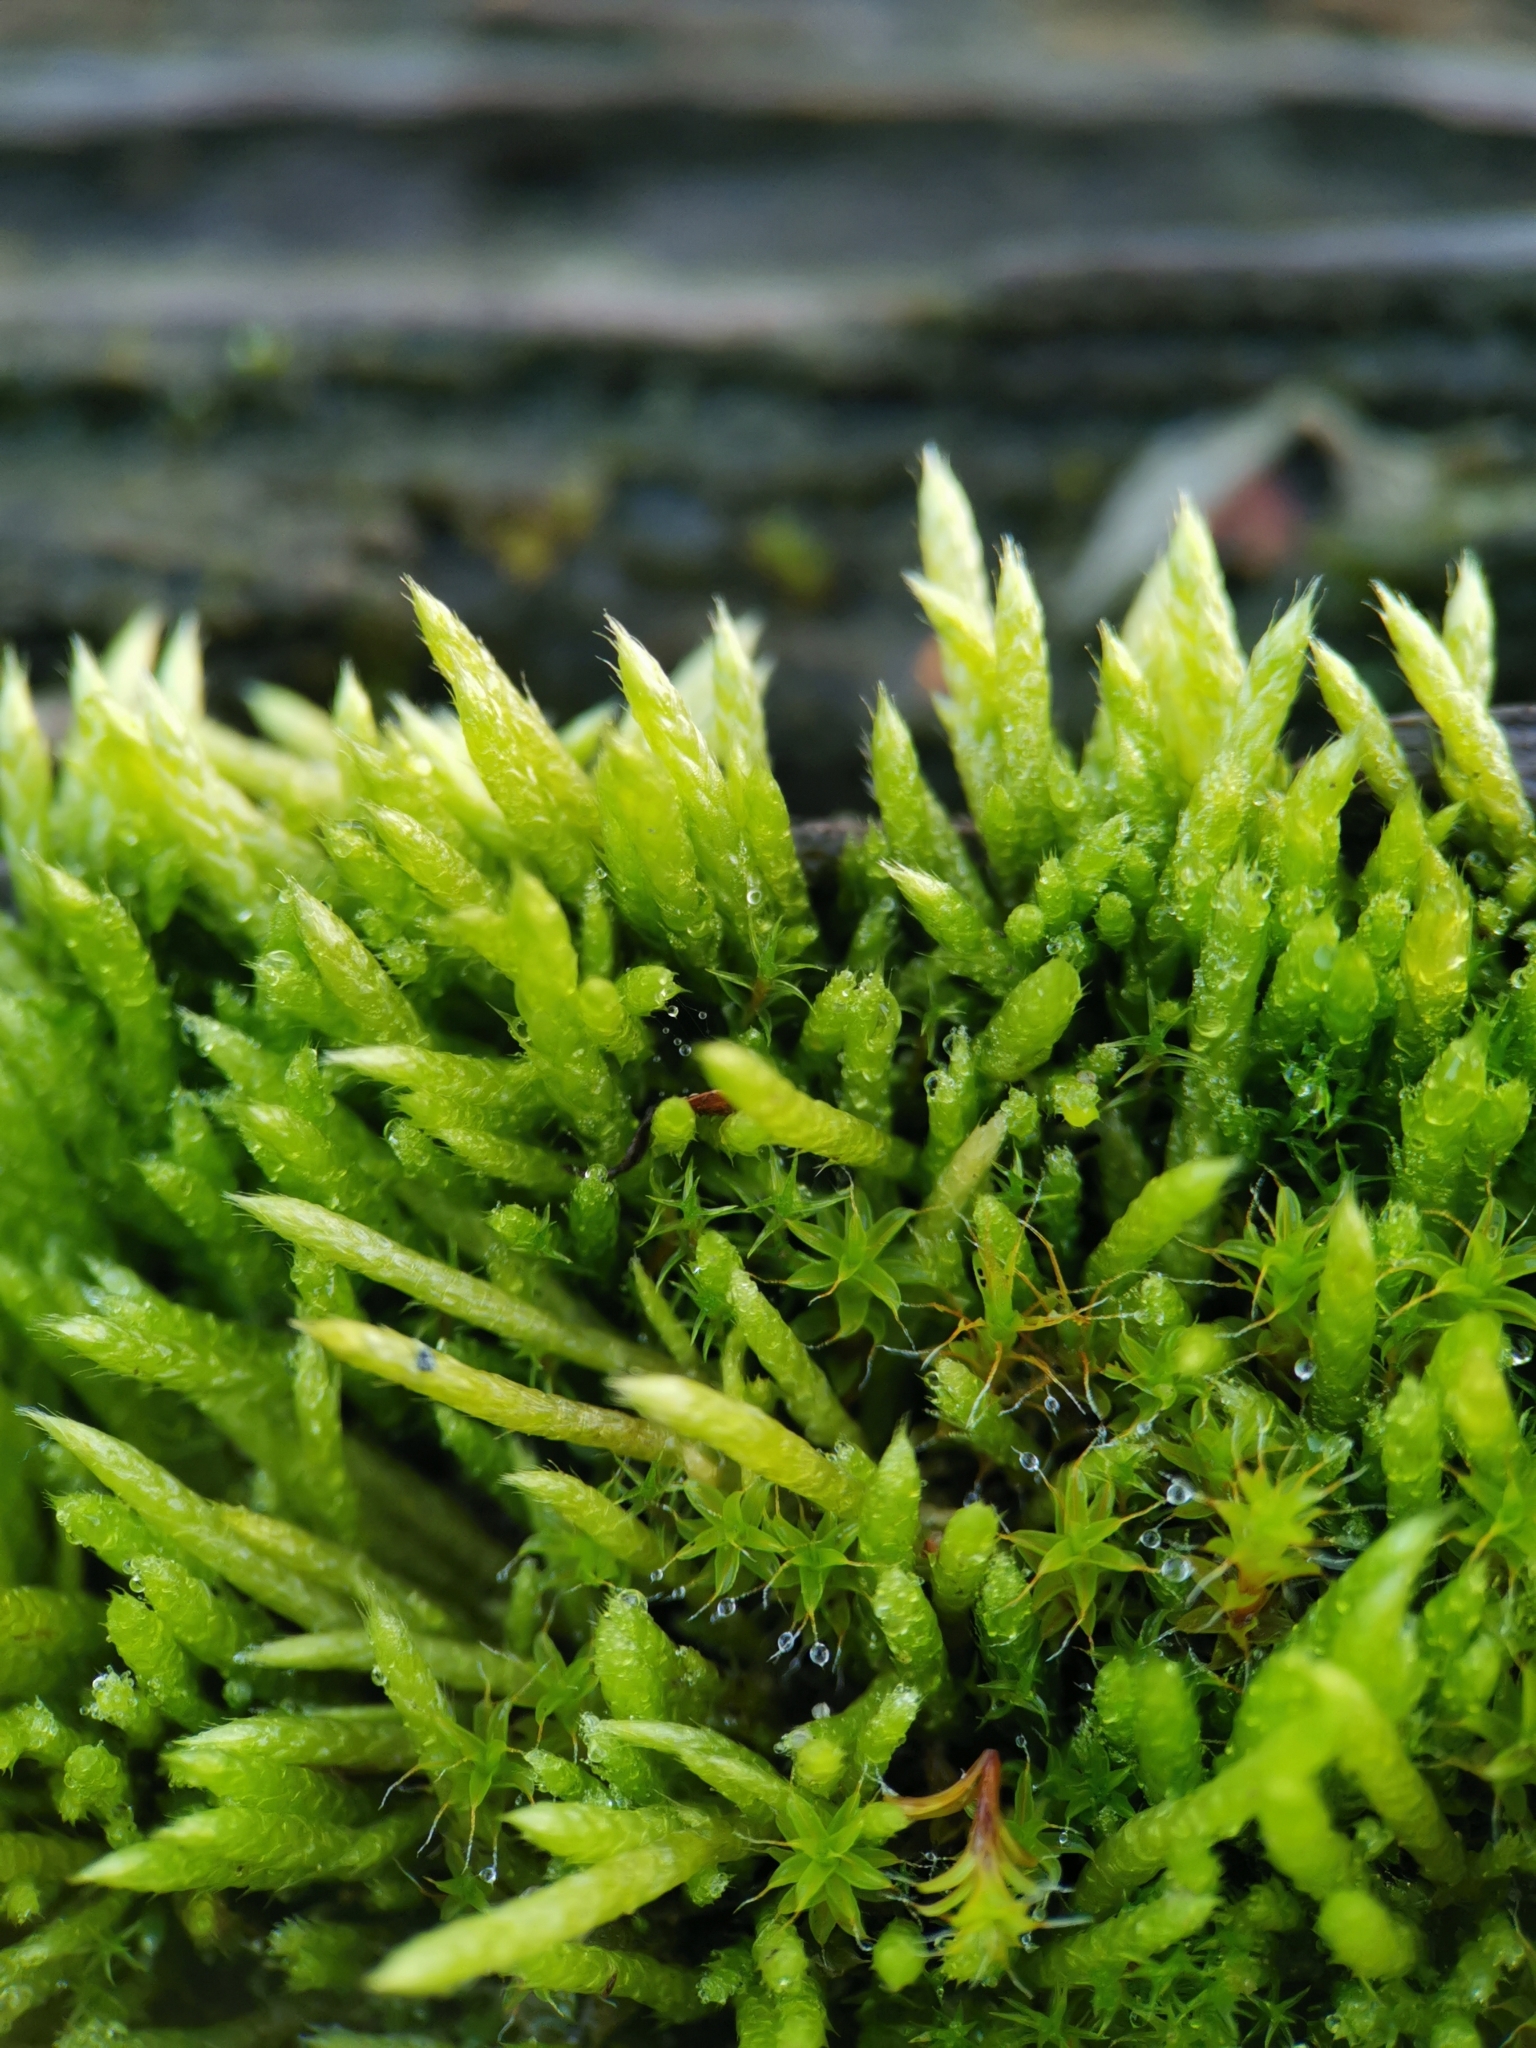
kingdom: Plantae
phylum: Bryophyta
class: Bryopsida
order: Hypnales
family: Brachytheciaceae
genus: Brachythecium
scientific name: Brachythecium albicans
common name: Whitish ragged moss
